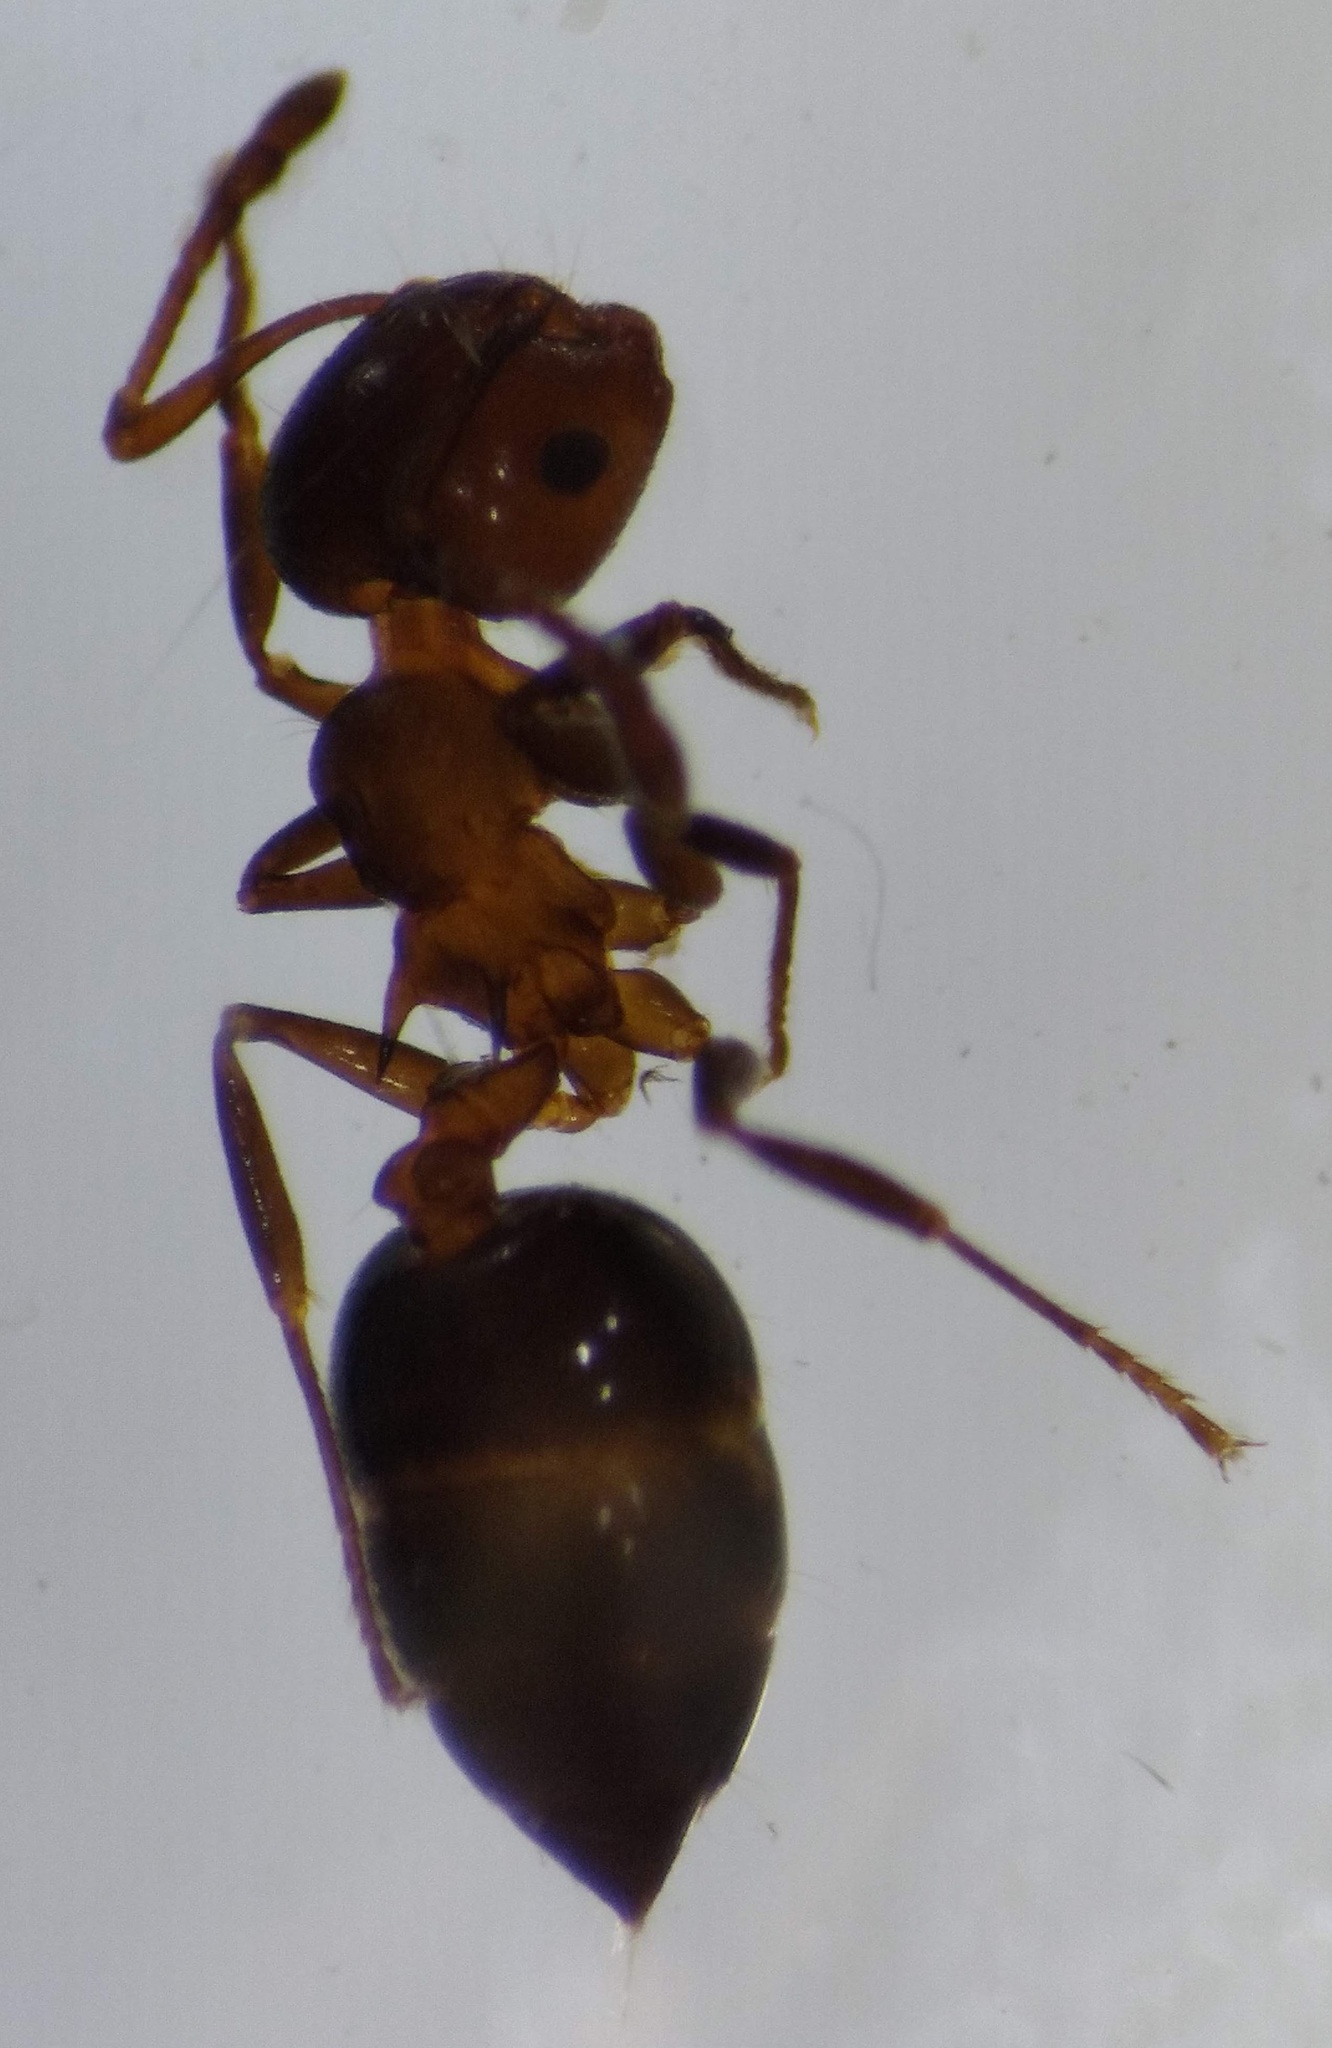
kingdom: Animalia
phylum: Arthropoda
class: Insecta
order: Hymenoptera
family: Formicidae
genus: Crematogaster
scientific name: Crematogaster cerasi
